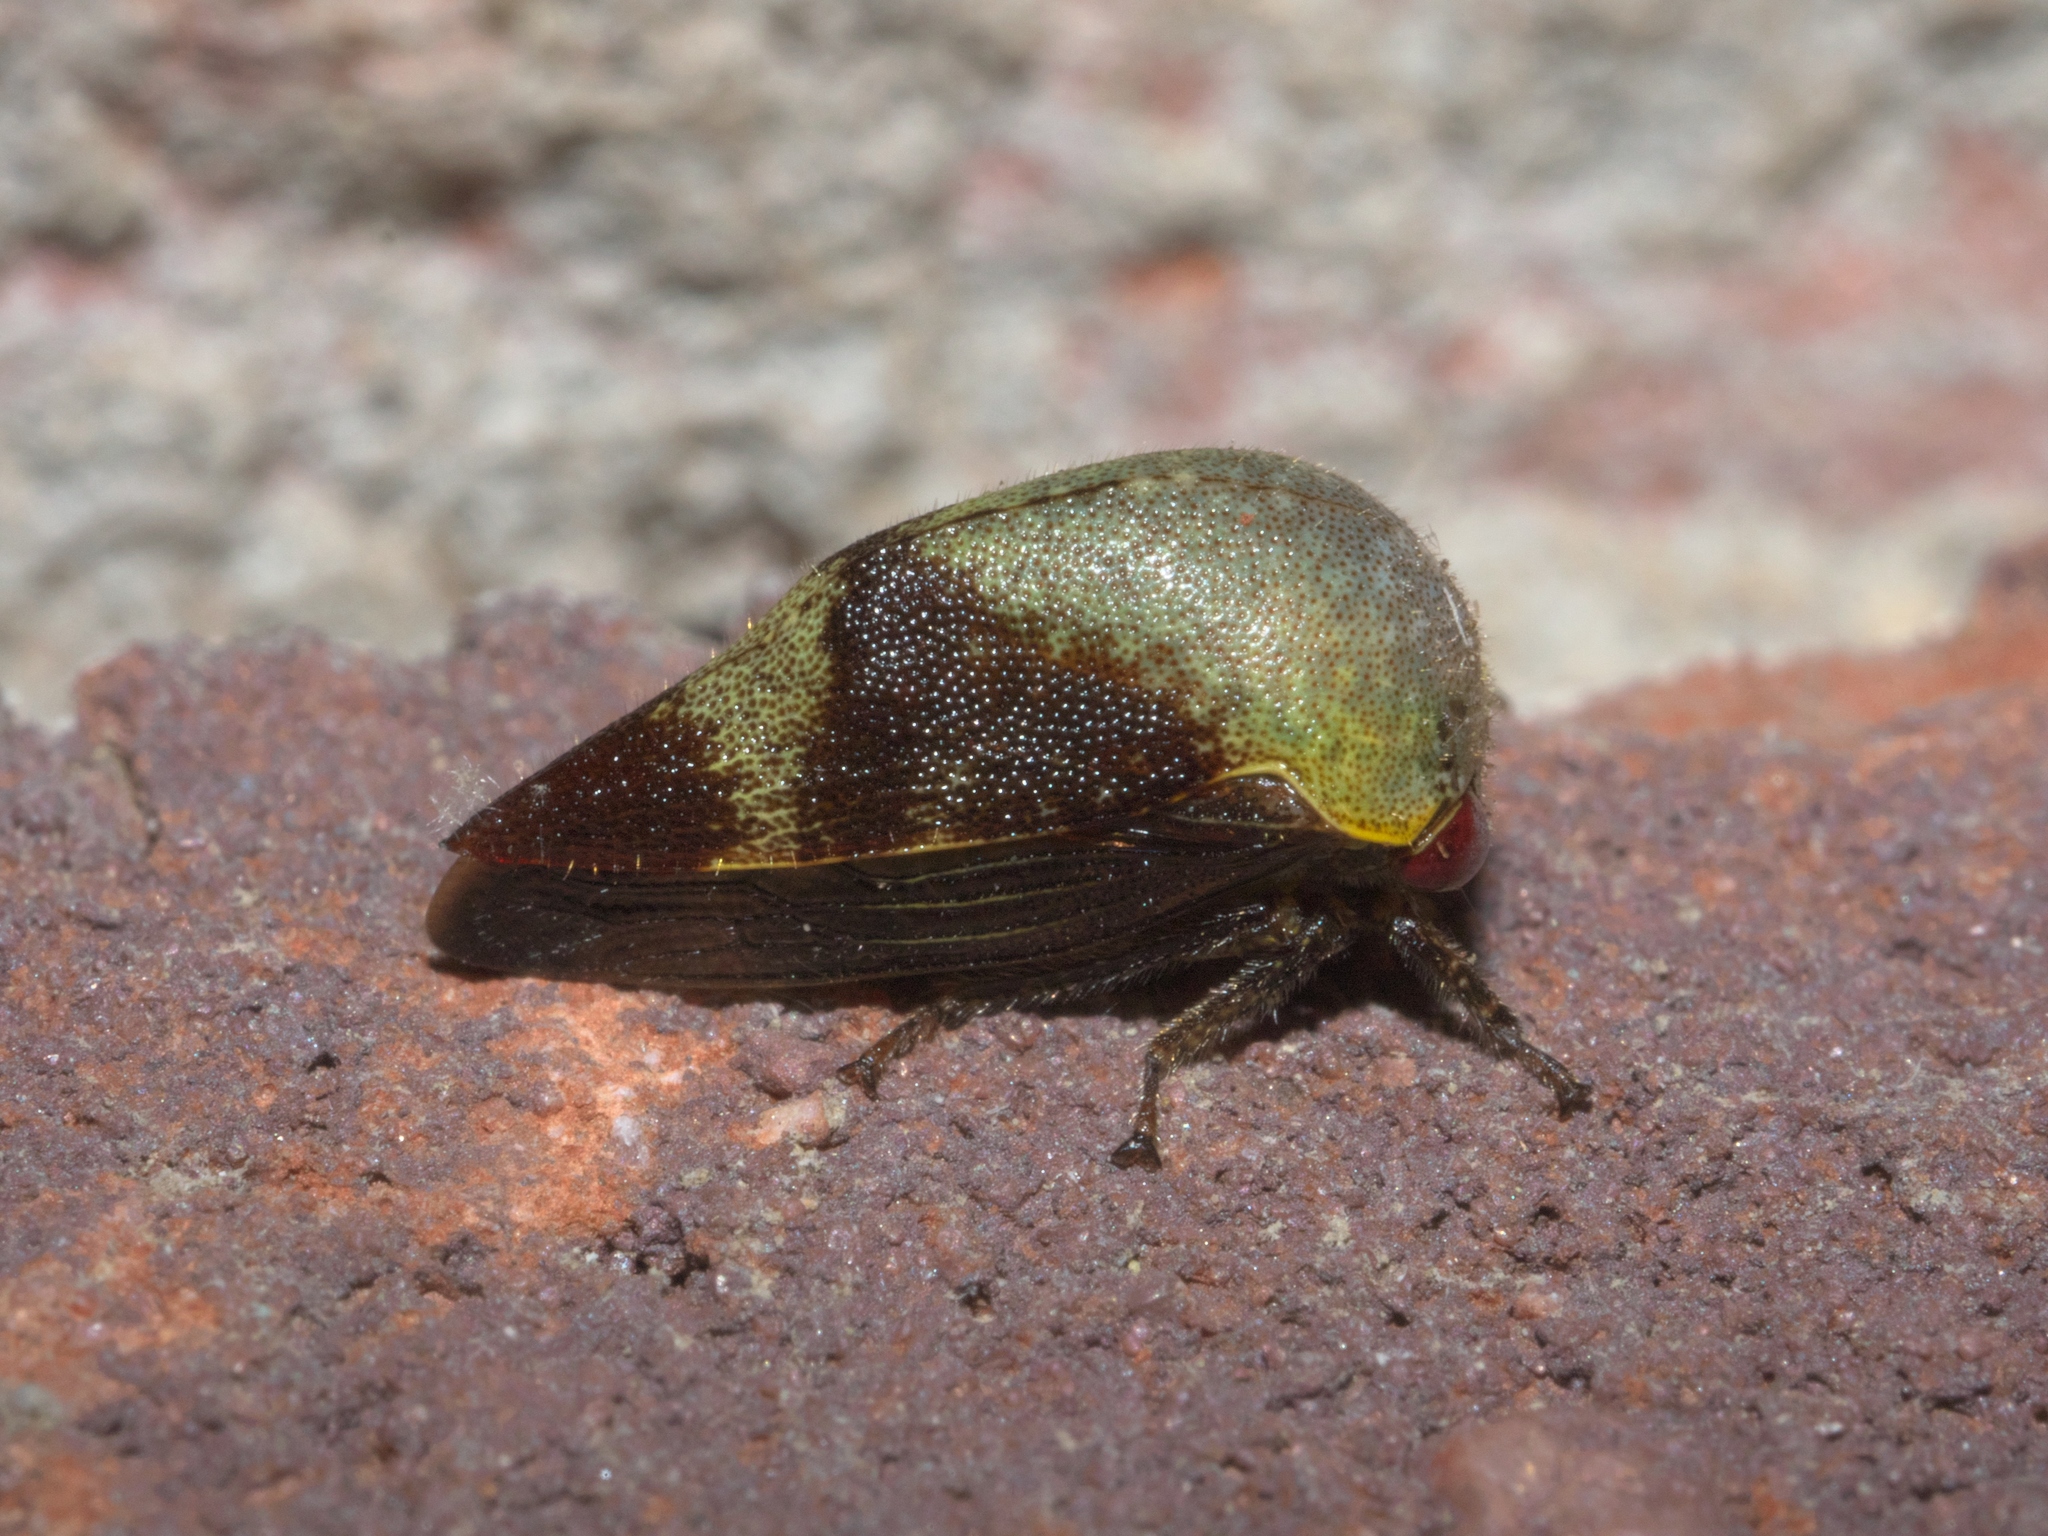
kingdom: Animalia
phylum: Arthropoda
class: Insecta
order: Hemiptera
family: Membracidae
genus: Carynota
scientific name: Carynota mera
